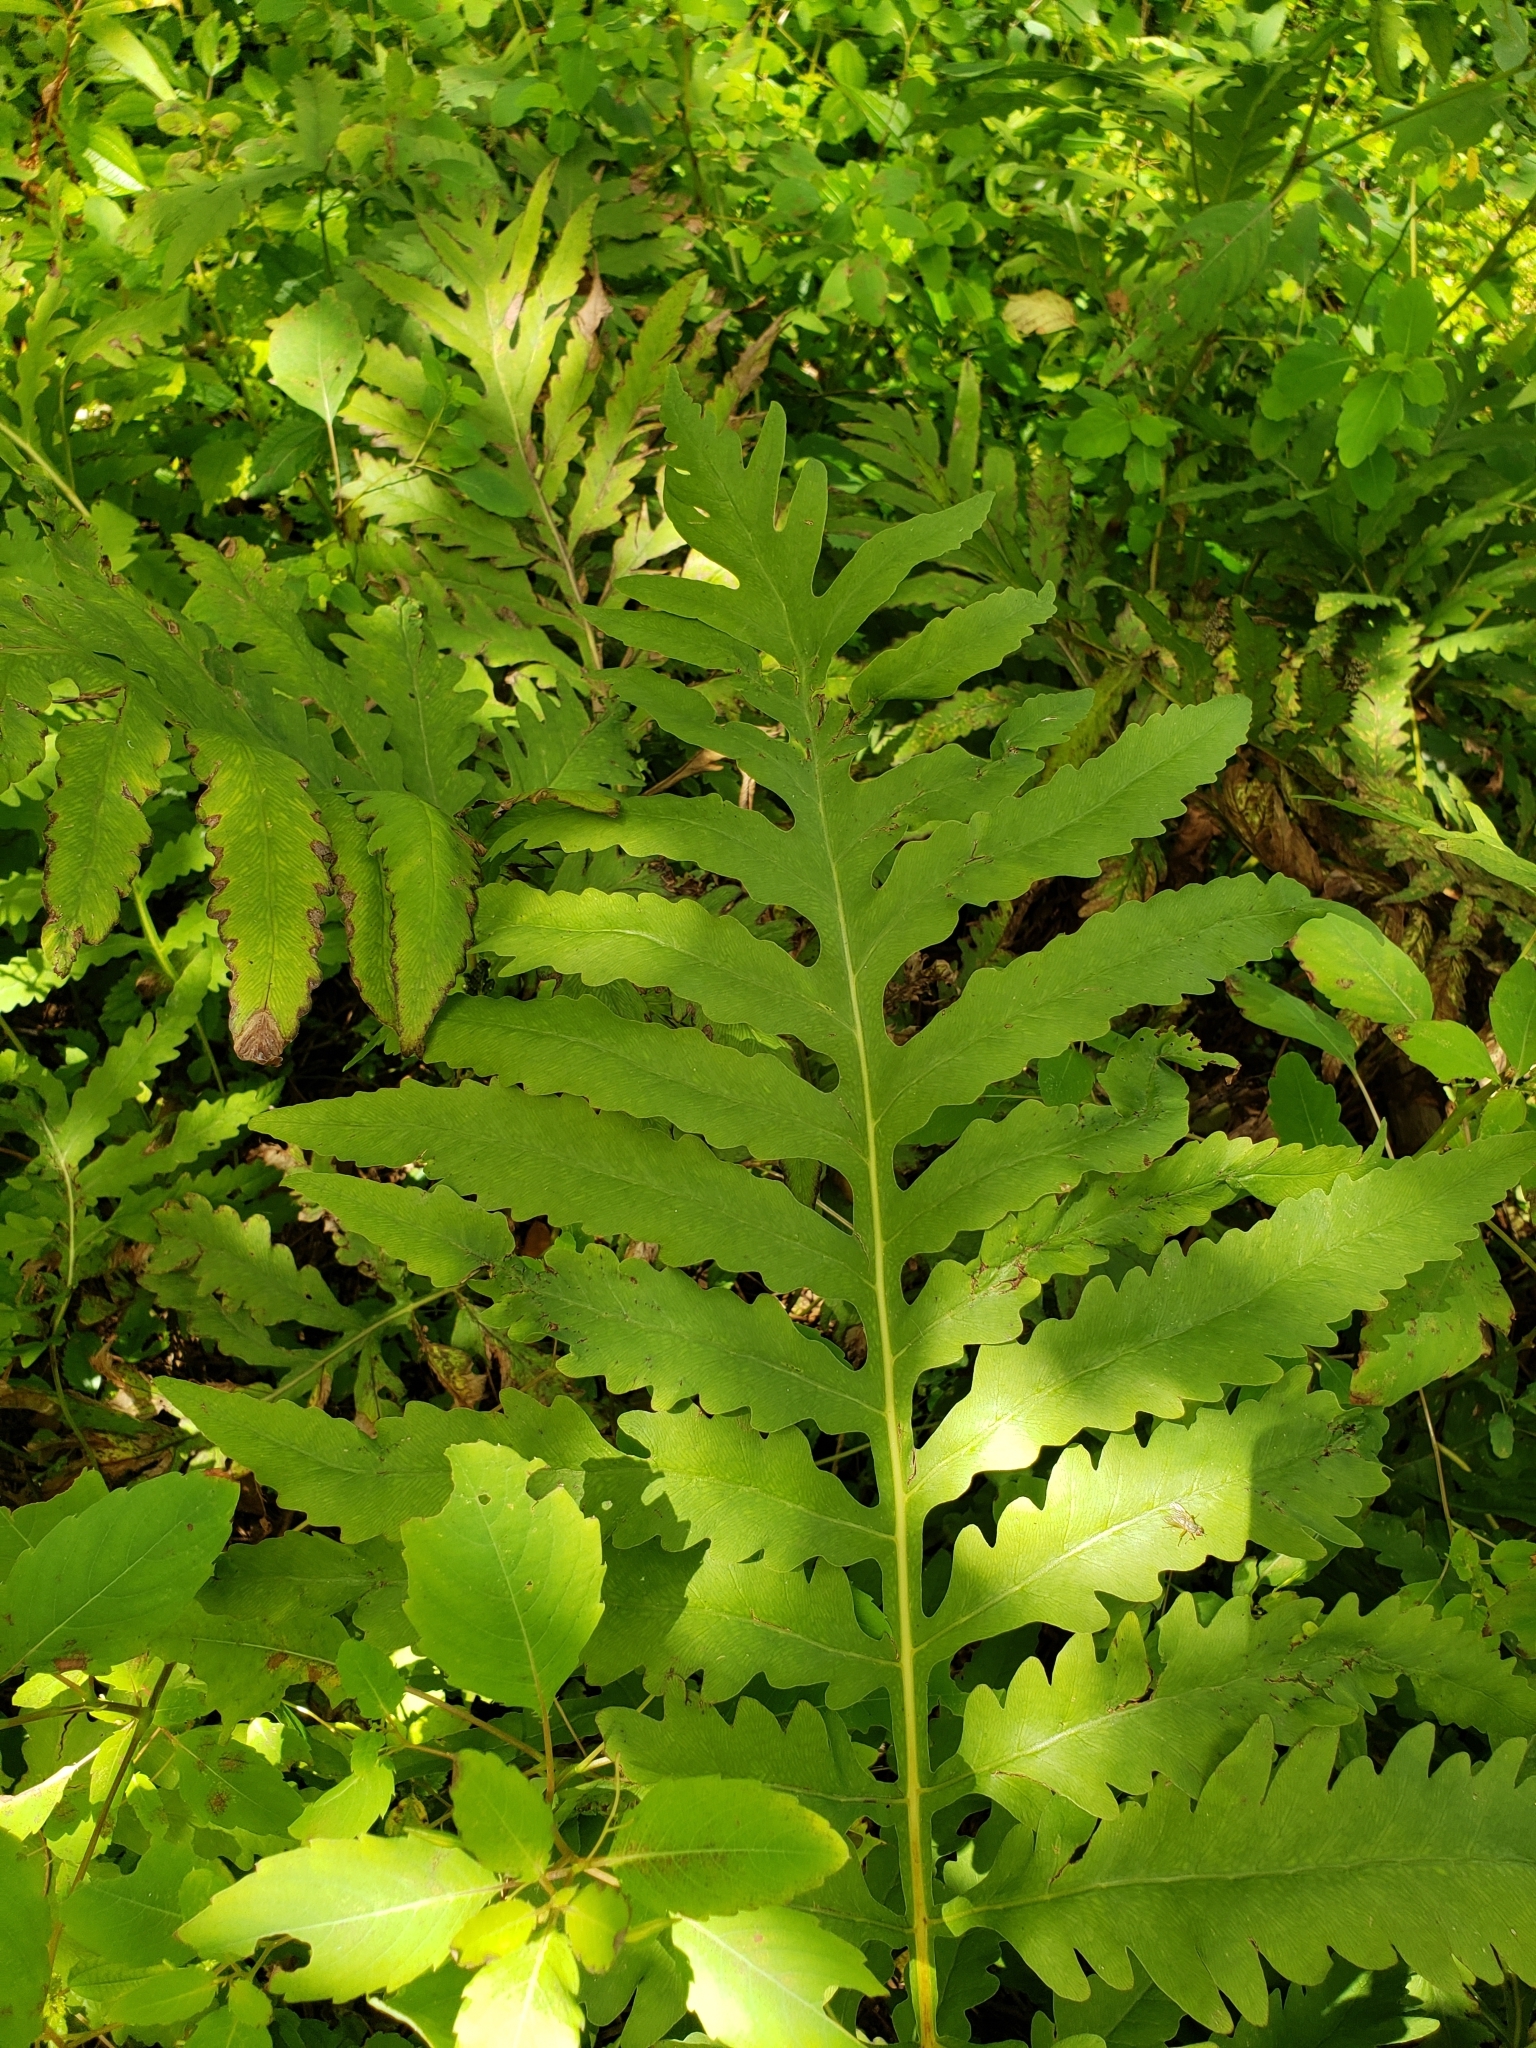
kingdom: Plantae
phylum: Tracheophyta
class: Polypodiopsida
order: Polypodiales
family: Onocleaceae
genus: Onoclea
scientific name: Onoclea sensibilis
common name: Sensitive fern
